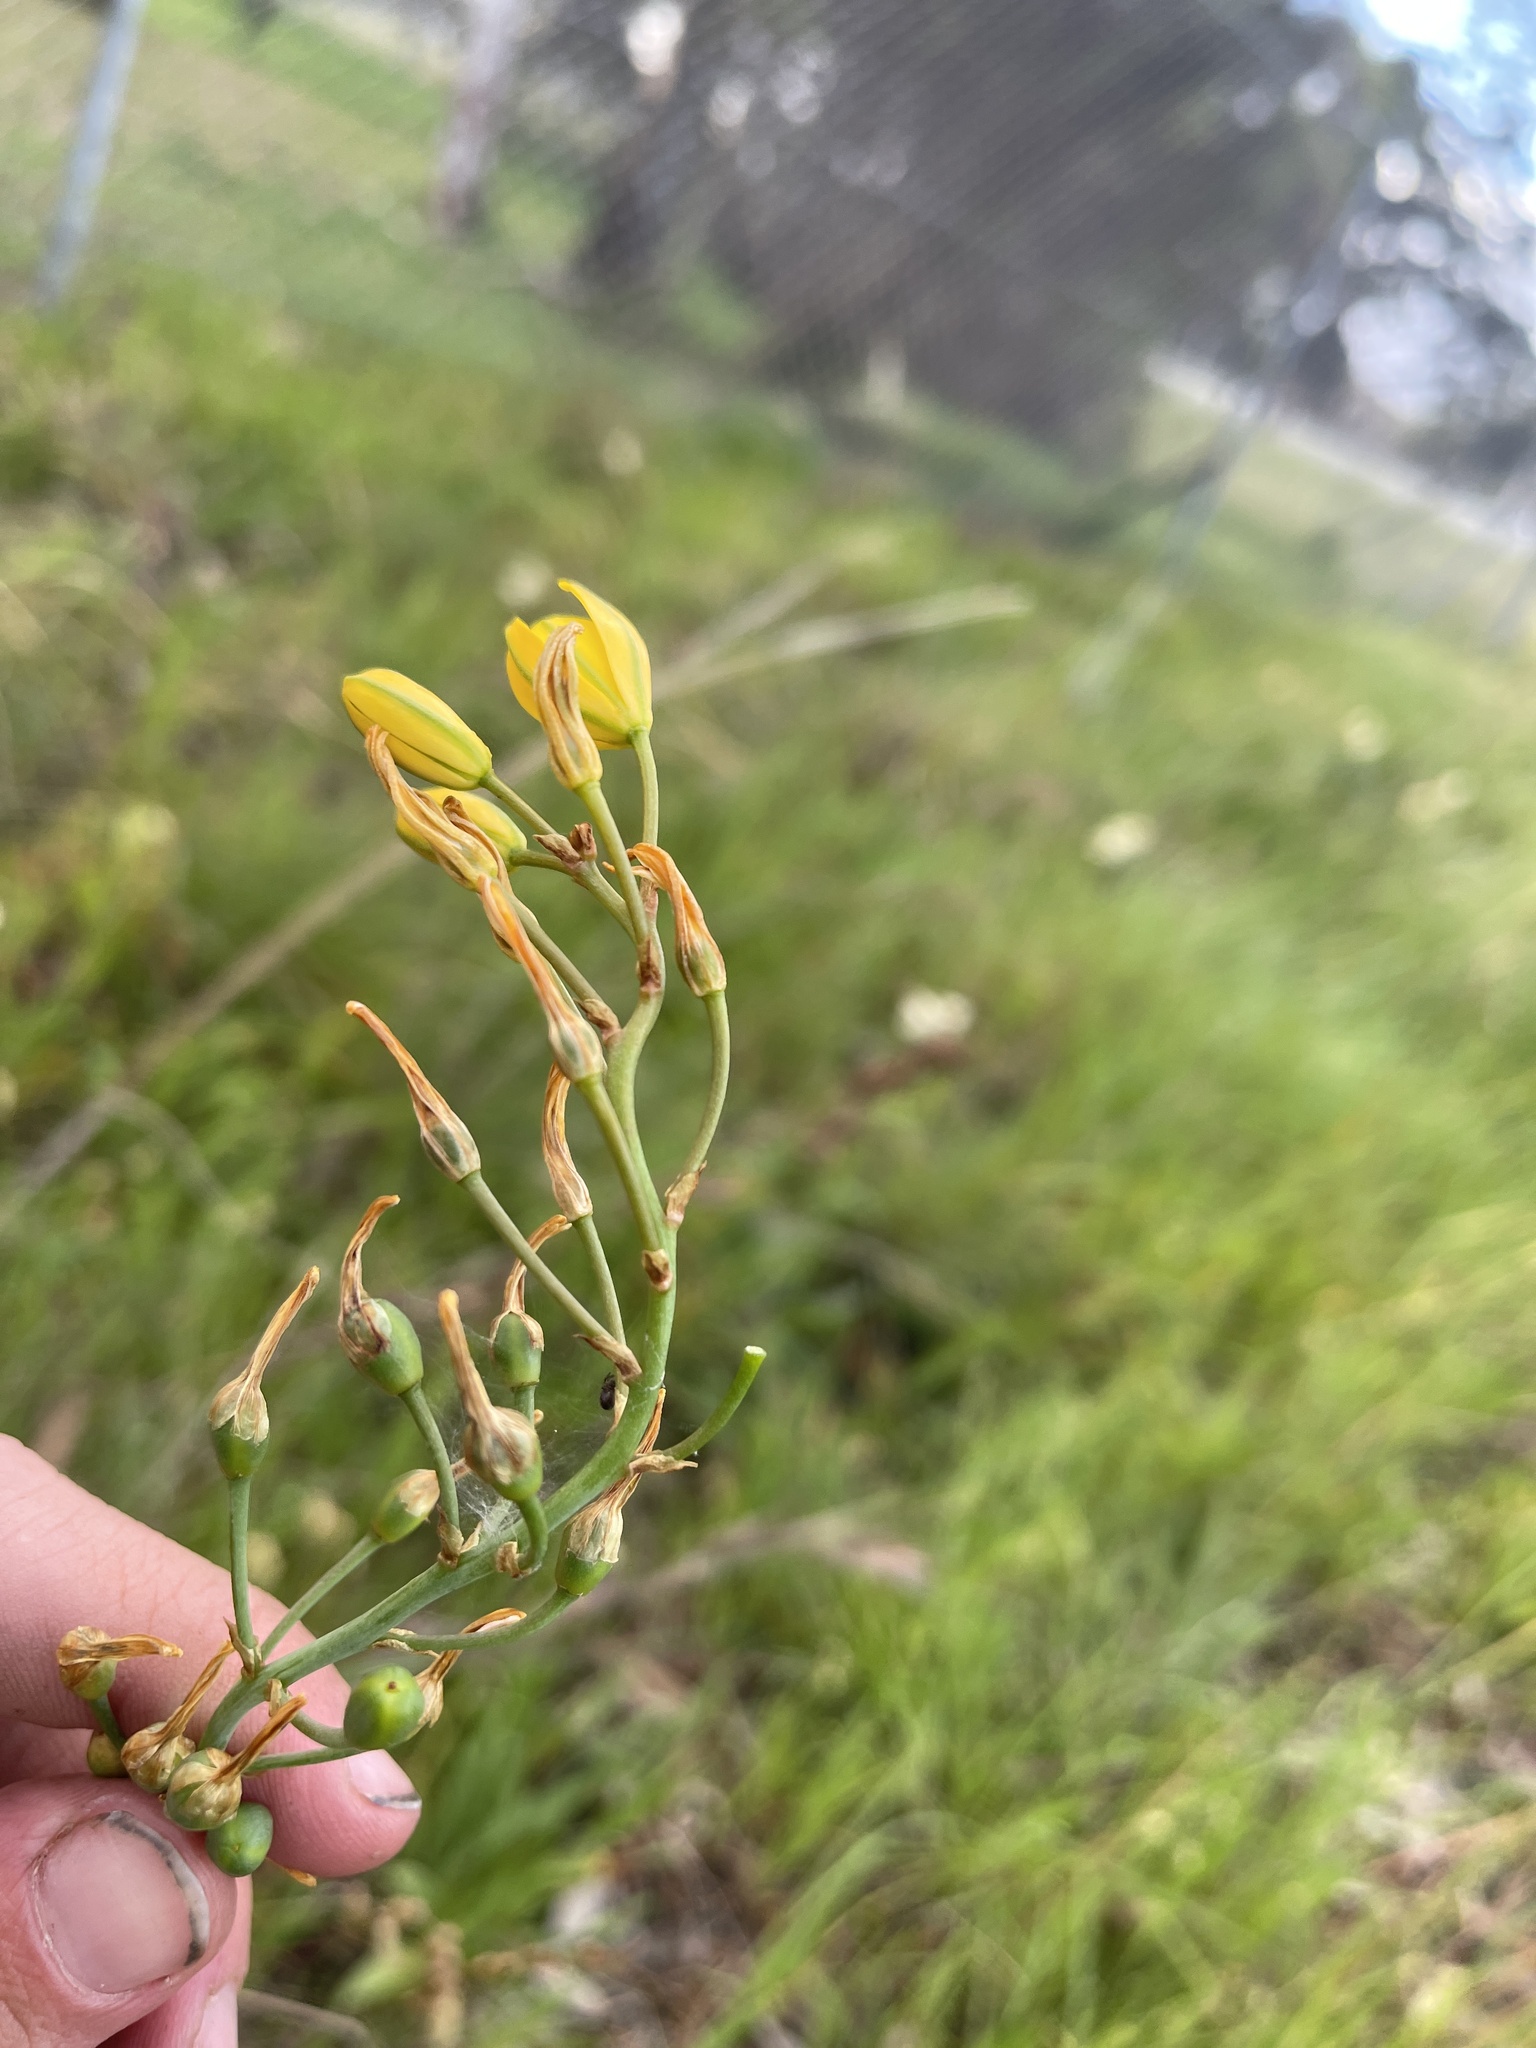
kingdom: Plantae
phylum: Tracheophyta
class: Liliopsida
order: Asparagales
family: Asphodelaceae
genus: Bulbine
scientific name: Bulbine bulbosa
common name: Golden-lily
